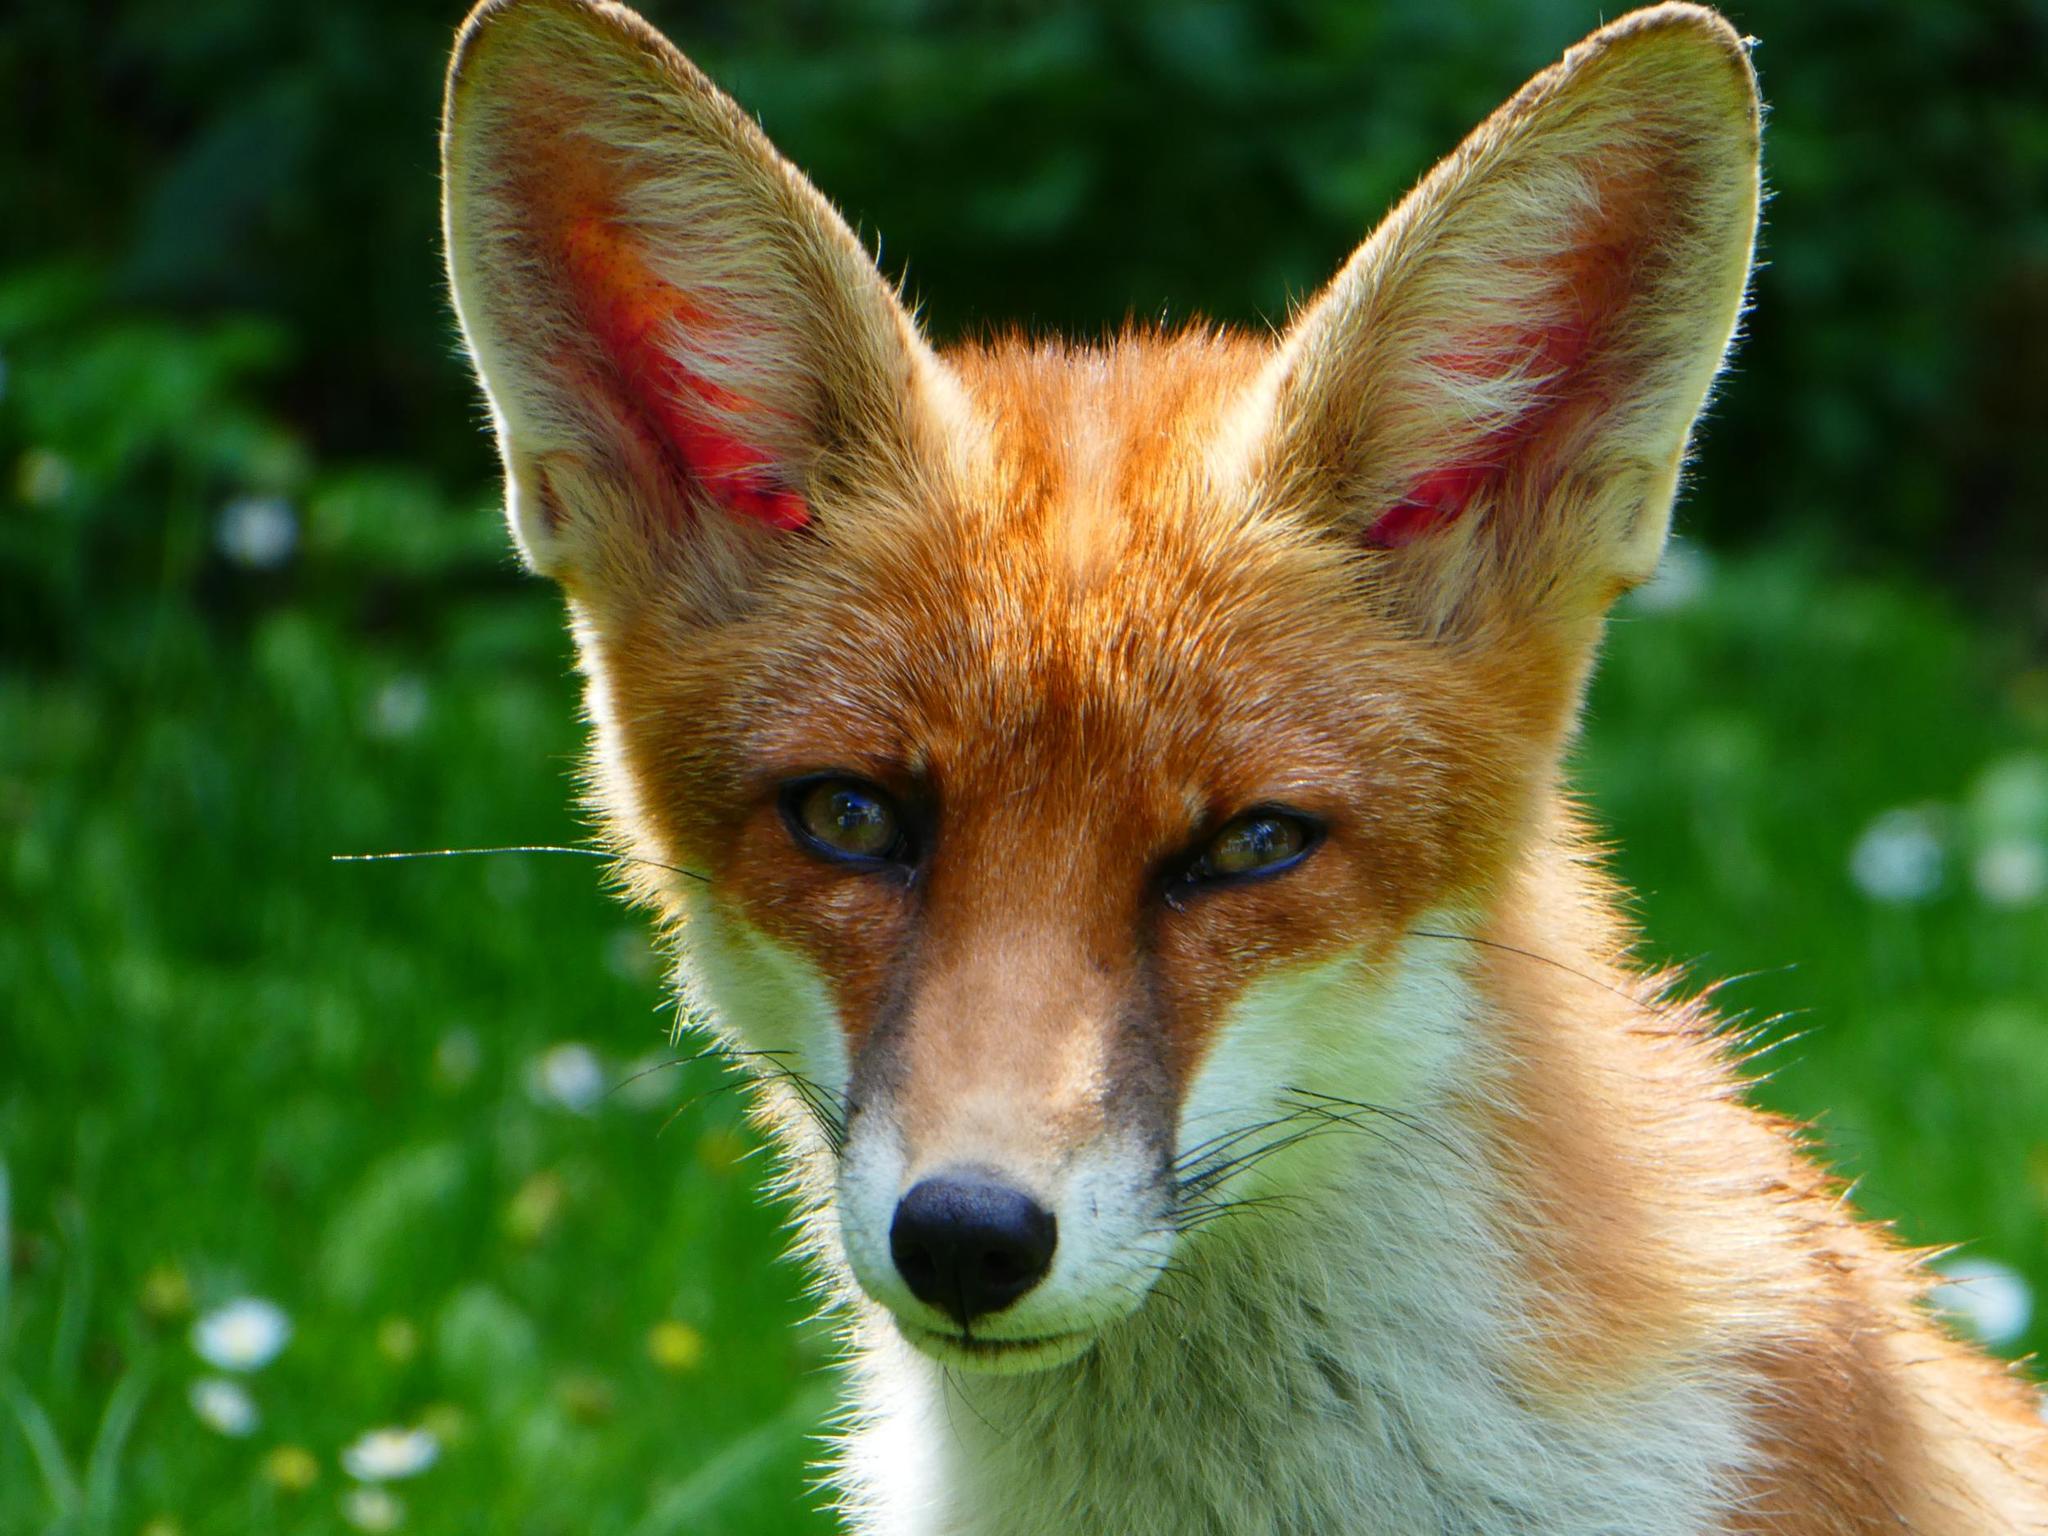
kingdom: Animalia
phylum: Chordata
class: Mammalia
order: Carnivora
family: Canidae
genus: Vulpes
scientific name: Vulpes vulpes
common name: Red fox
